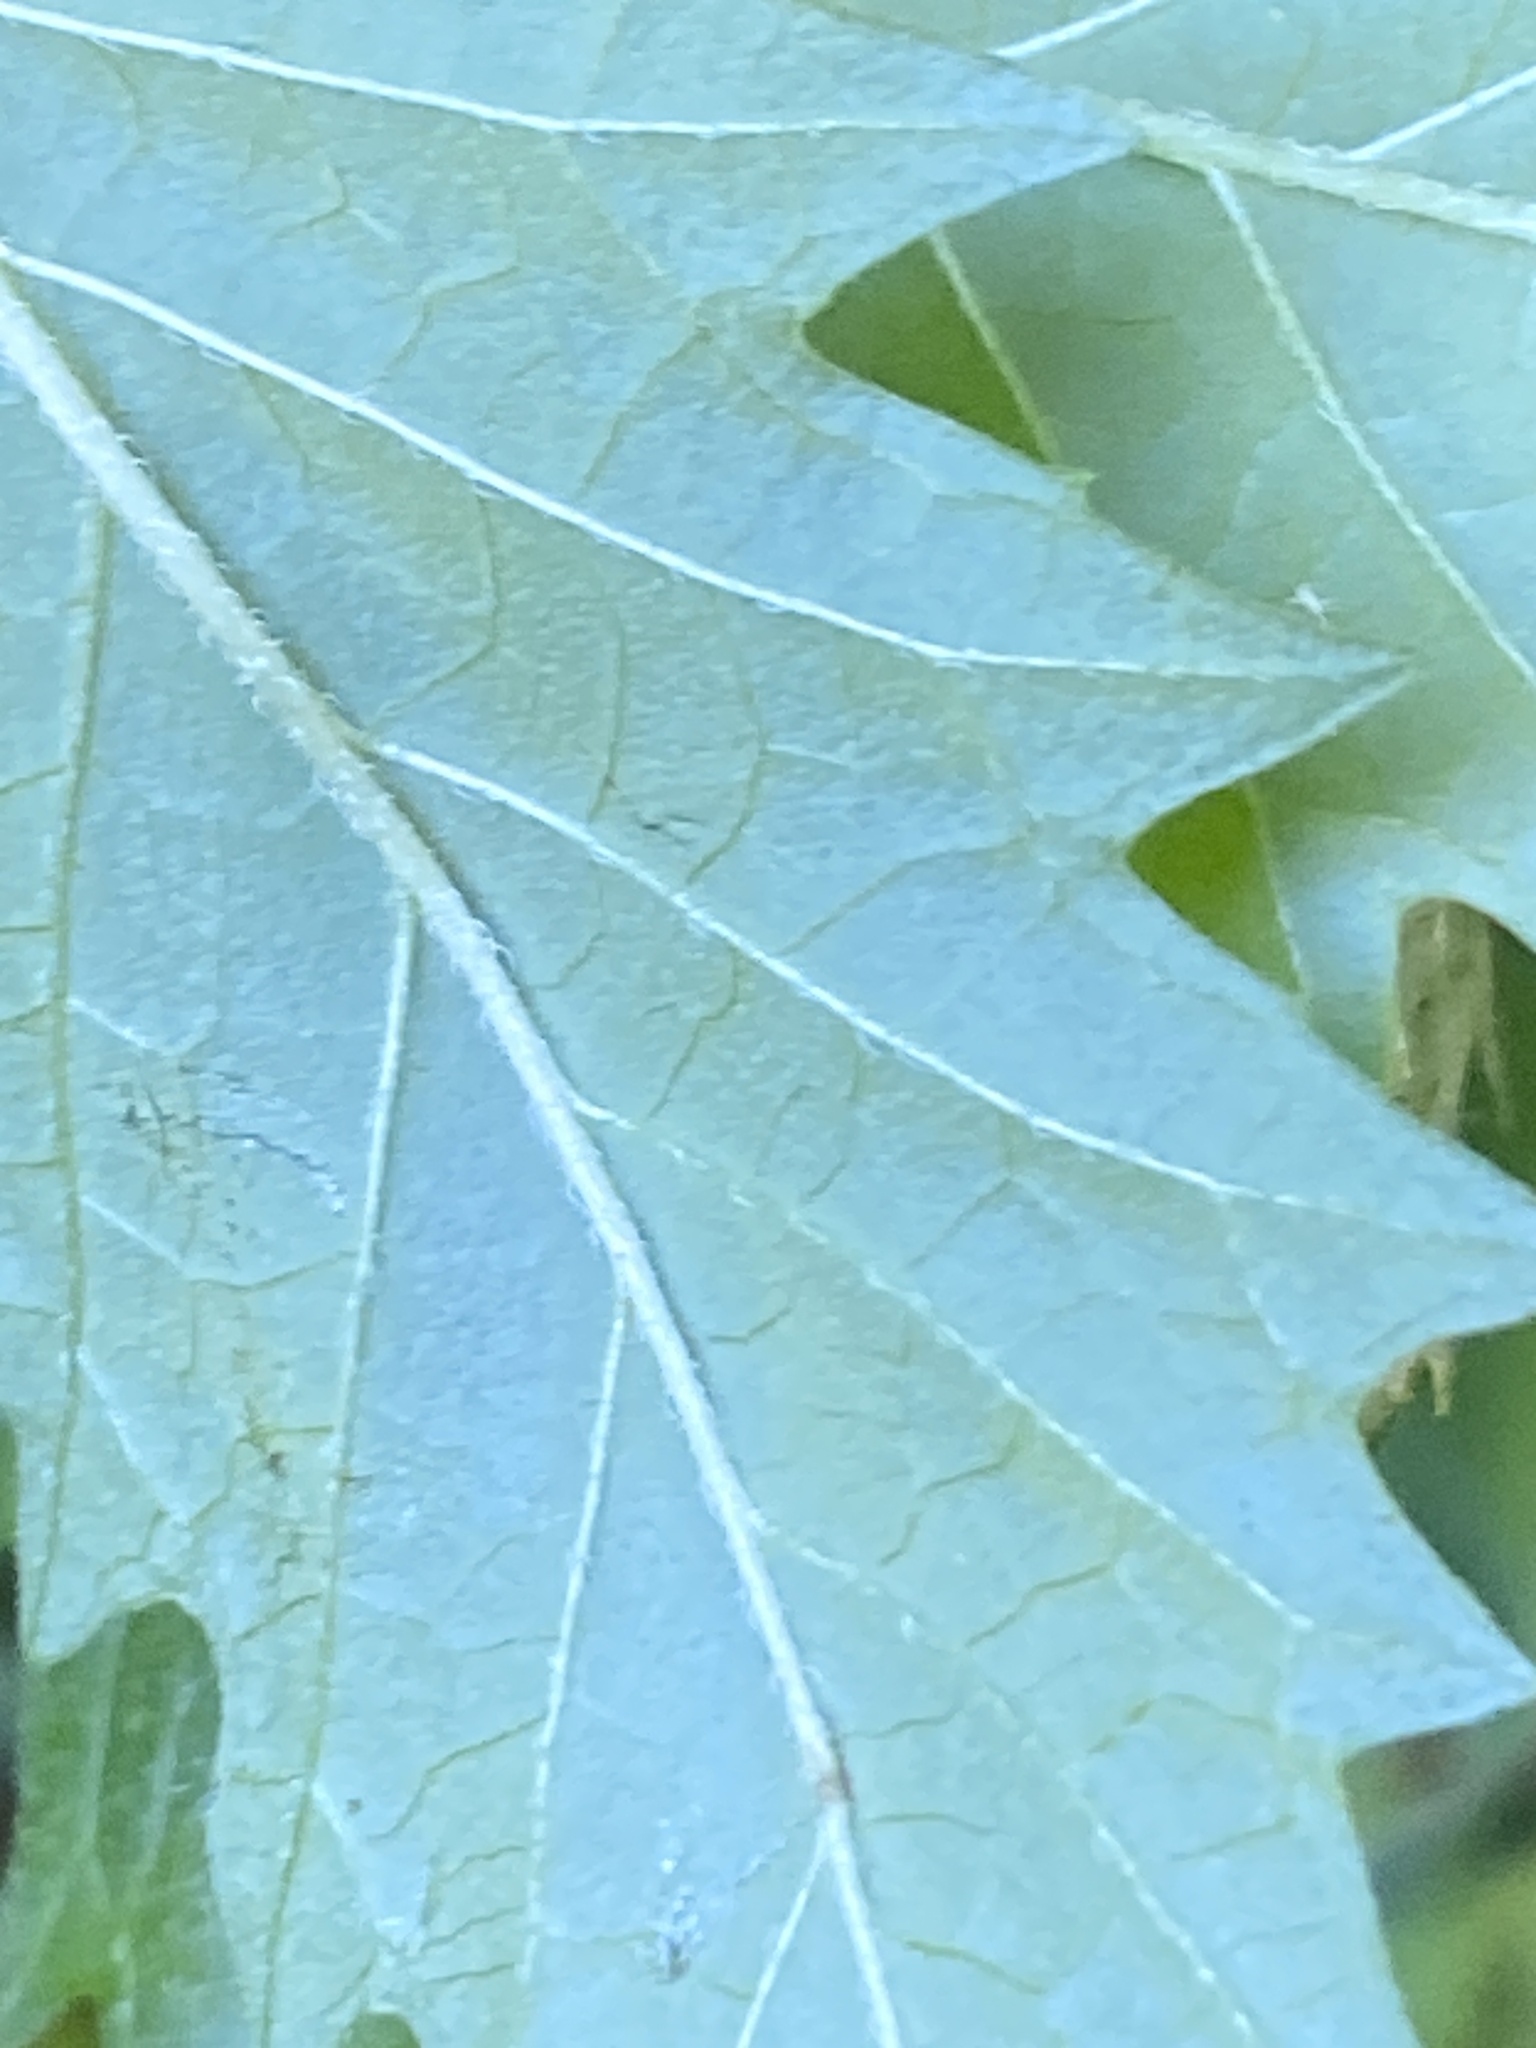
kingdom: Plantae
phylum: Tracheophyta
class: Magnoliopsida
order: Lamiales
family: Lamiaceae
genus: Lycopus
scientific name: Lycopus europaeus
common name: European bugleweed
